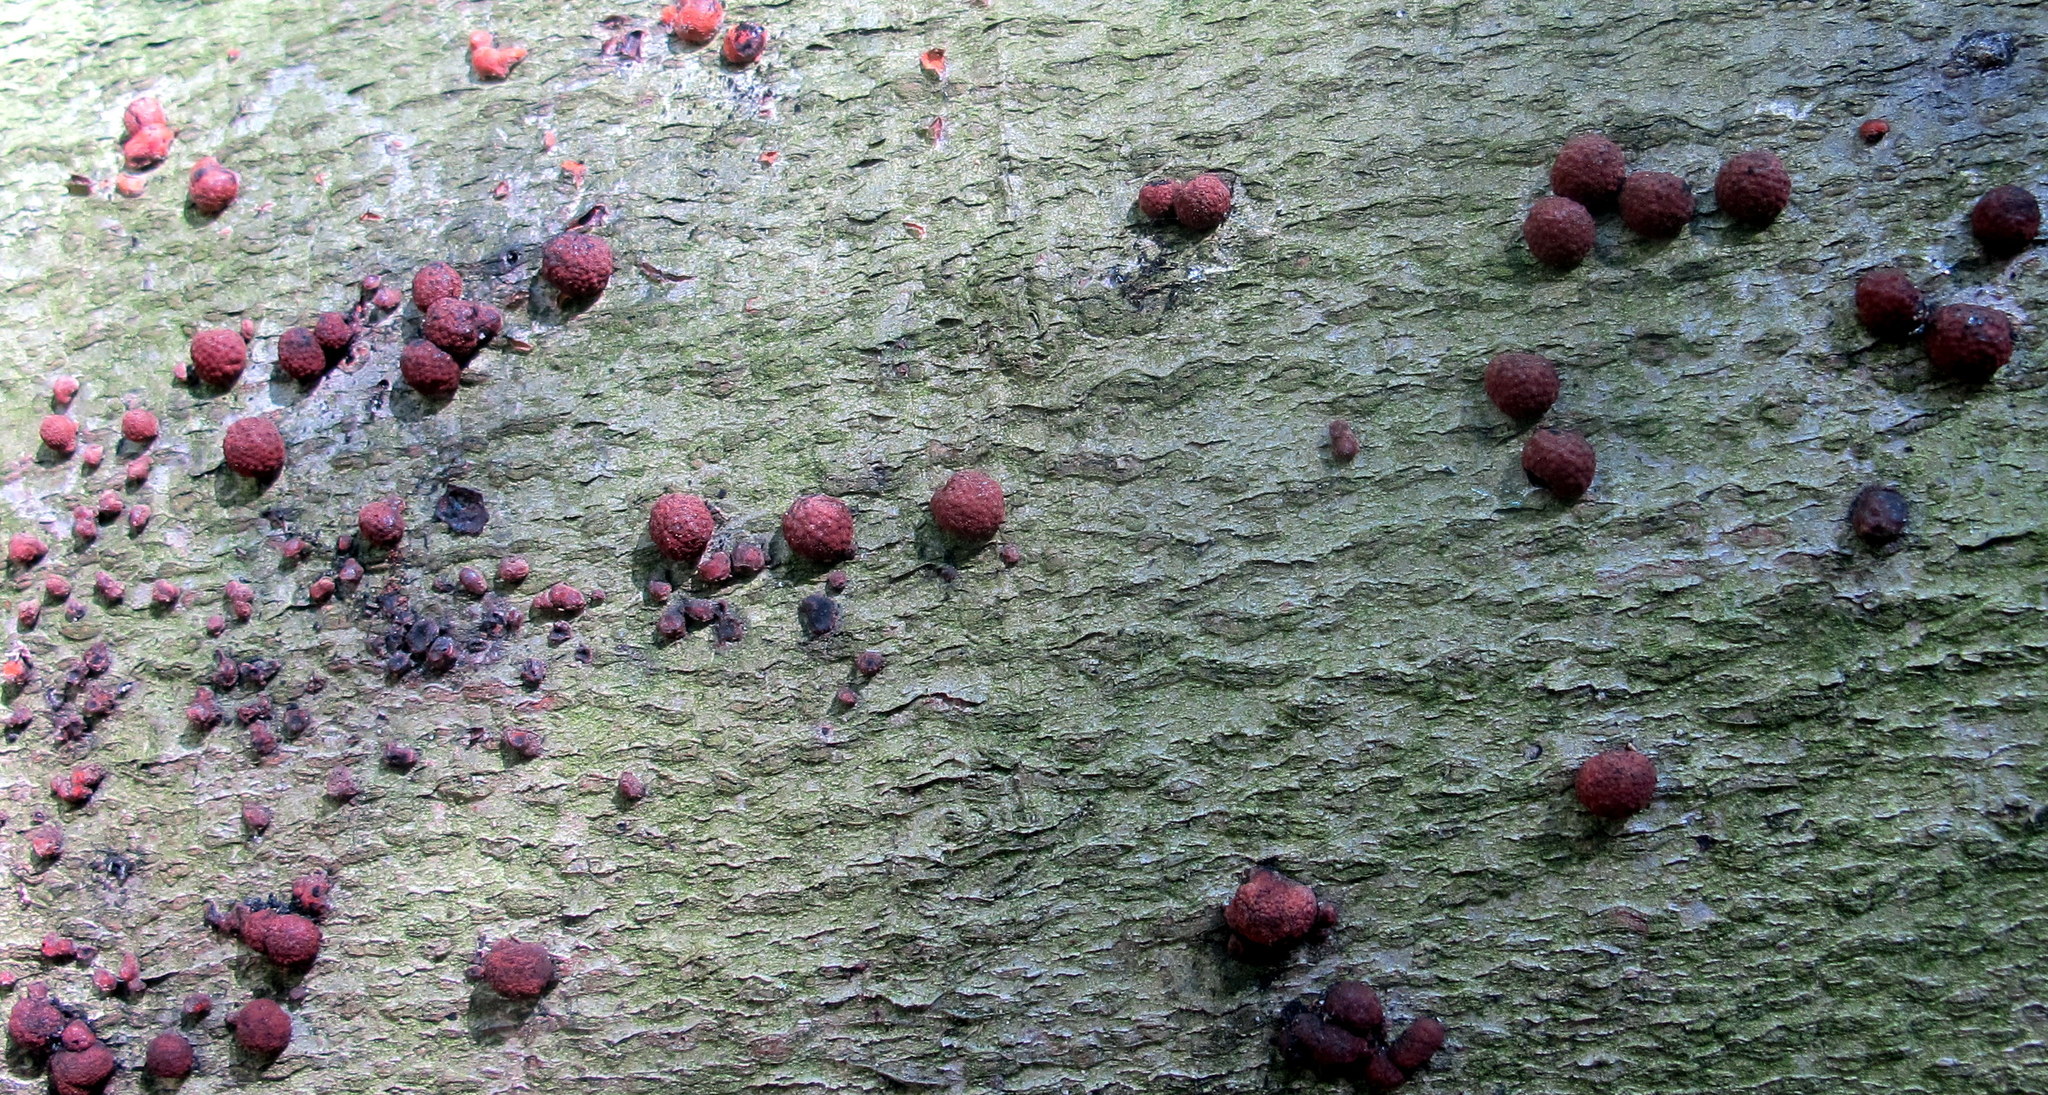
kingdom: Fungi
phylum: Ascomycota
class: Sordariomycetes
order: Xylariales
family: Hypoxylaceae
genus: Hypoxylon
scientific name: Hypoxylon fragiforme
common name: Beech woodwart
